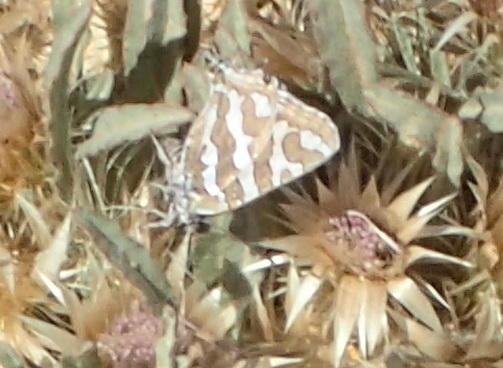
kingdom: Animalia
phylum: Arthropoda
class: Insecta
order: Lepidoptera
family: Lycaenidae
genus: Aphnaeus
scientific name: Aphnaeus namaquus
